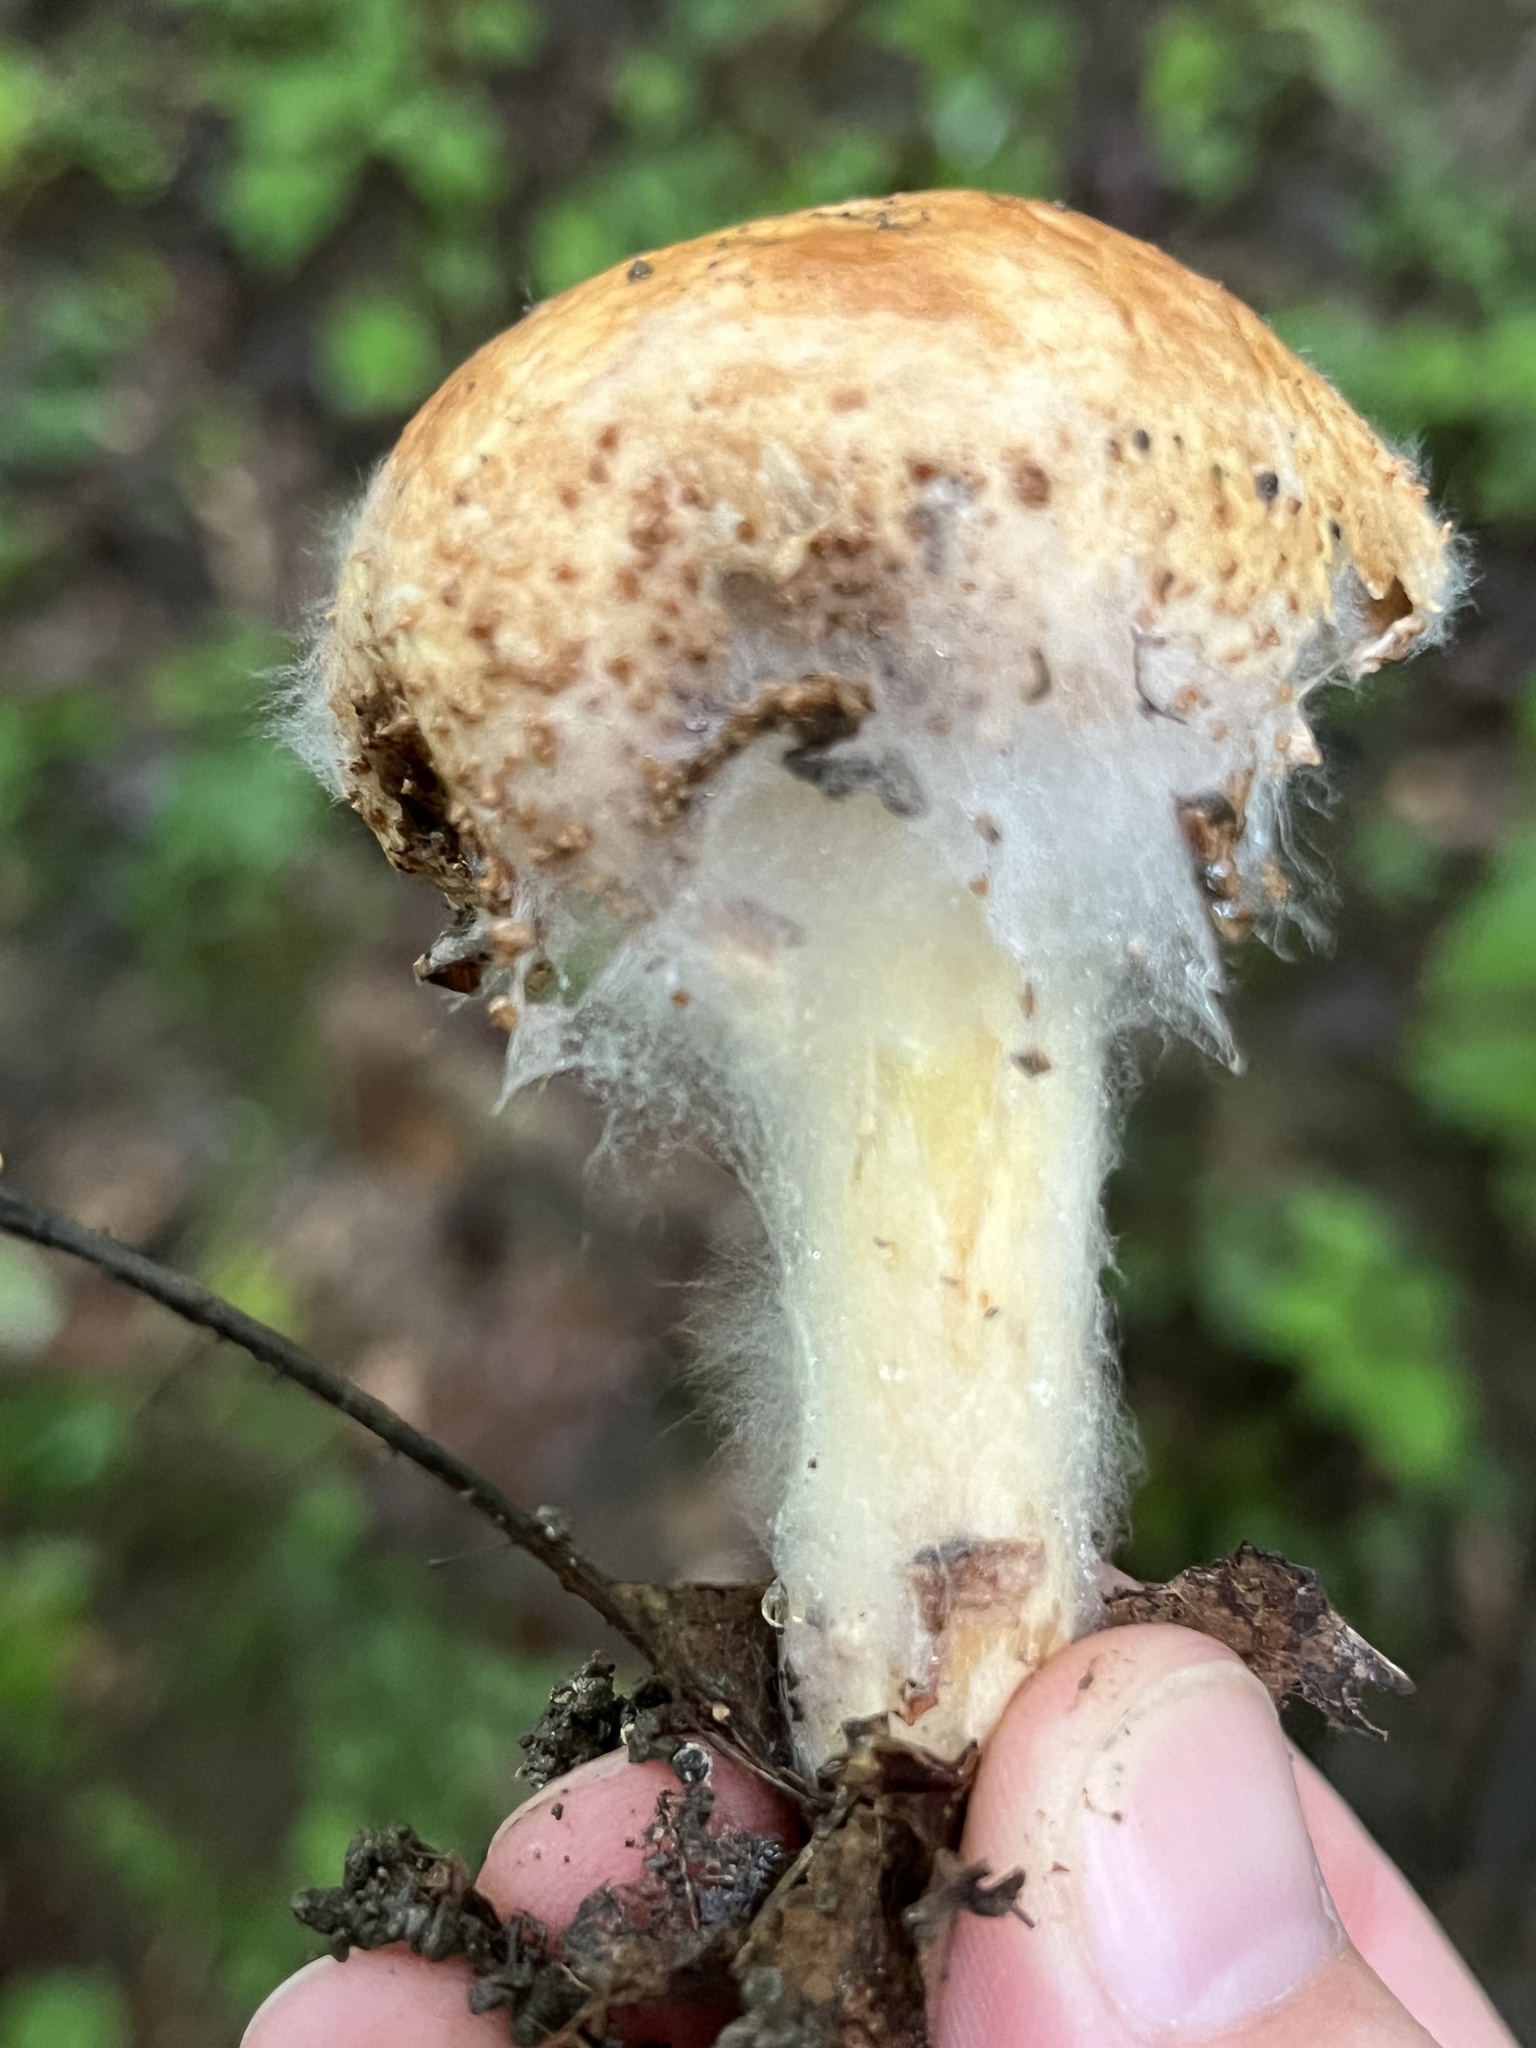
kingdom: Fungi
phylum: Mucoromycota
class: Mucoromycetes
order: Mucorales
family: Rhizopodaceae
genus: Syzygites
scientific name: Syzygites megalocarpus
